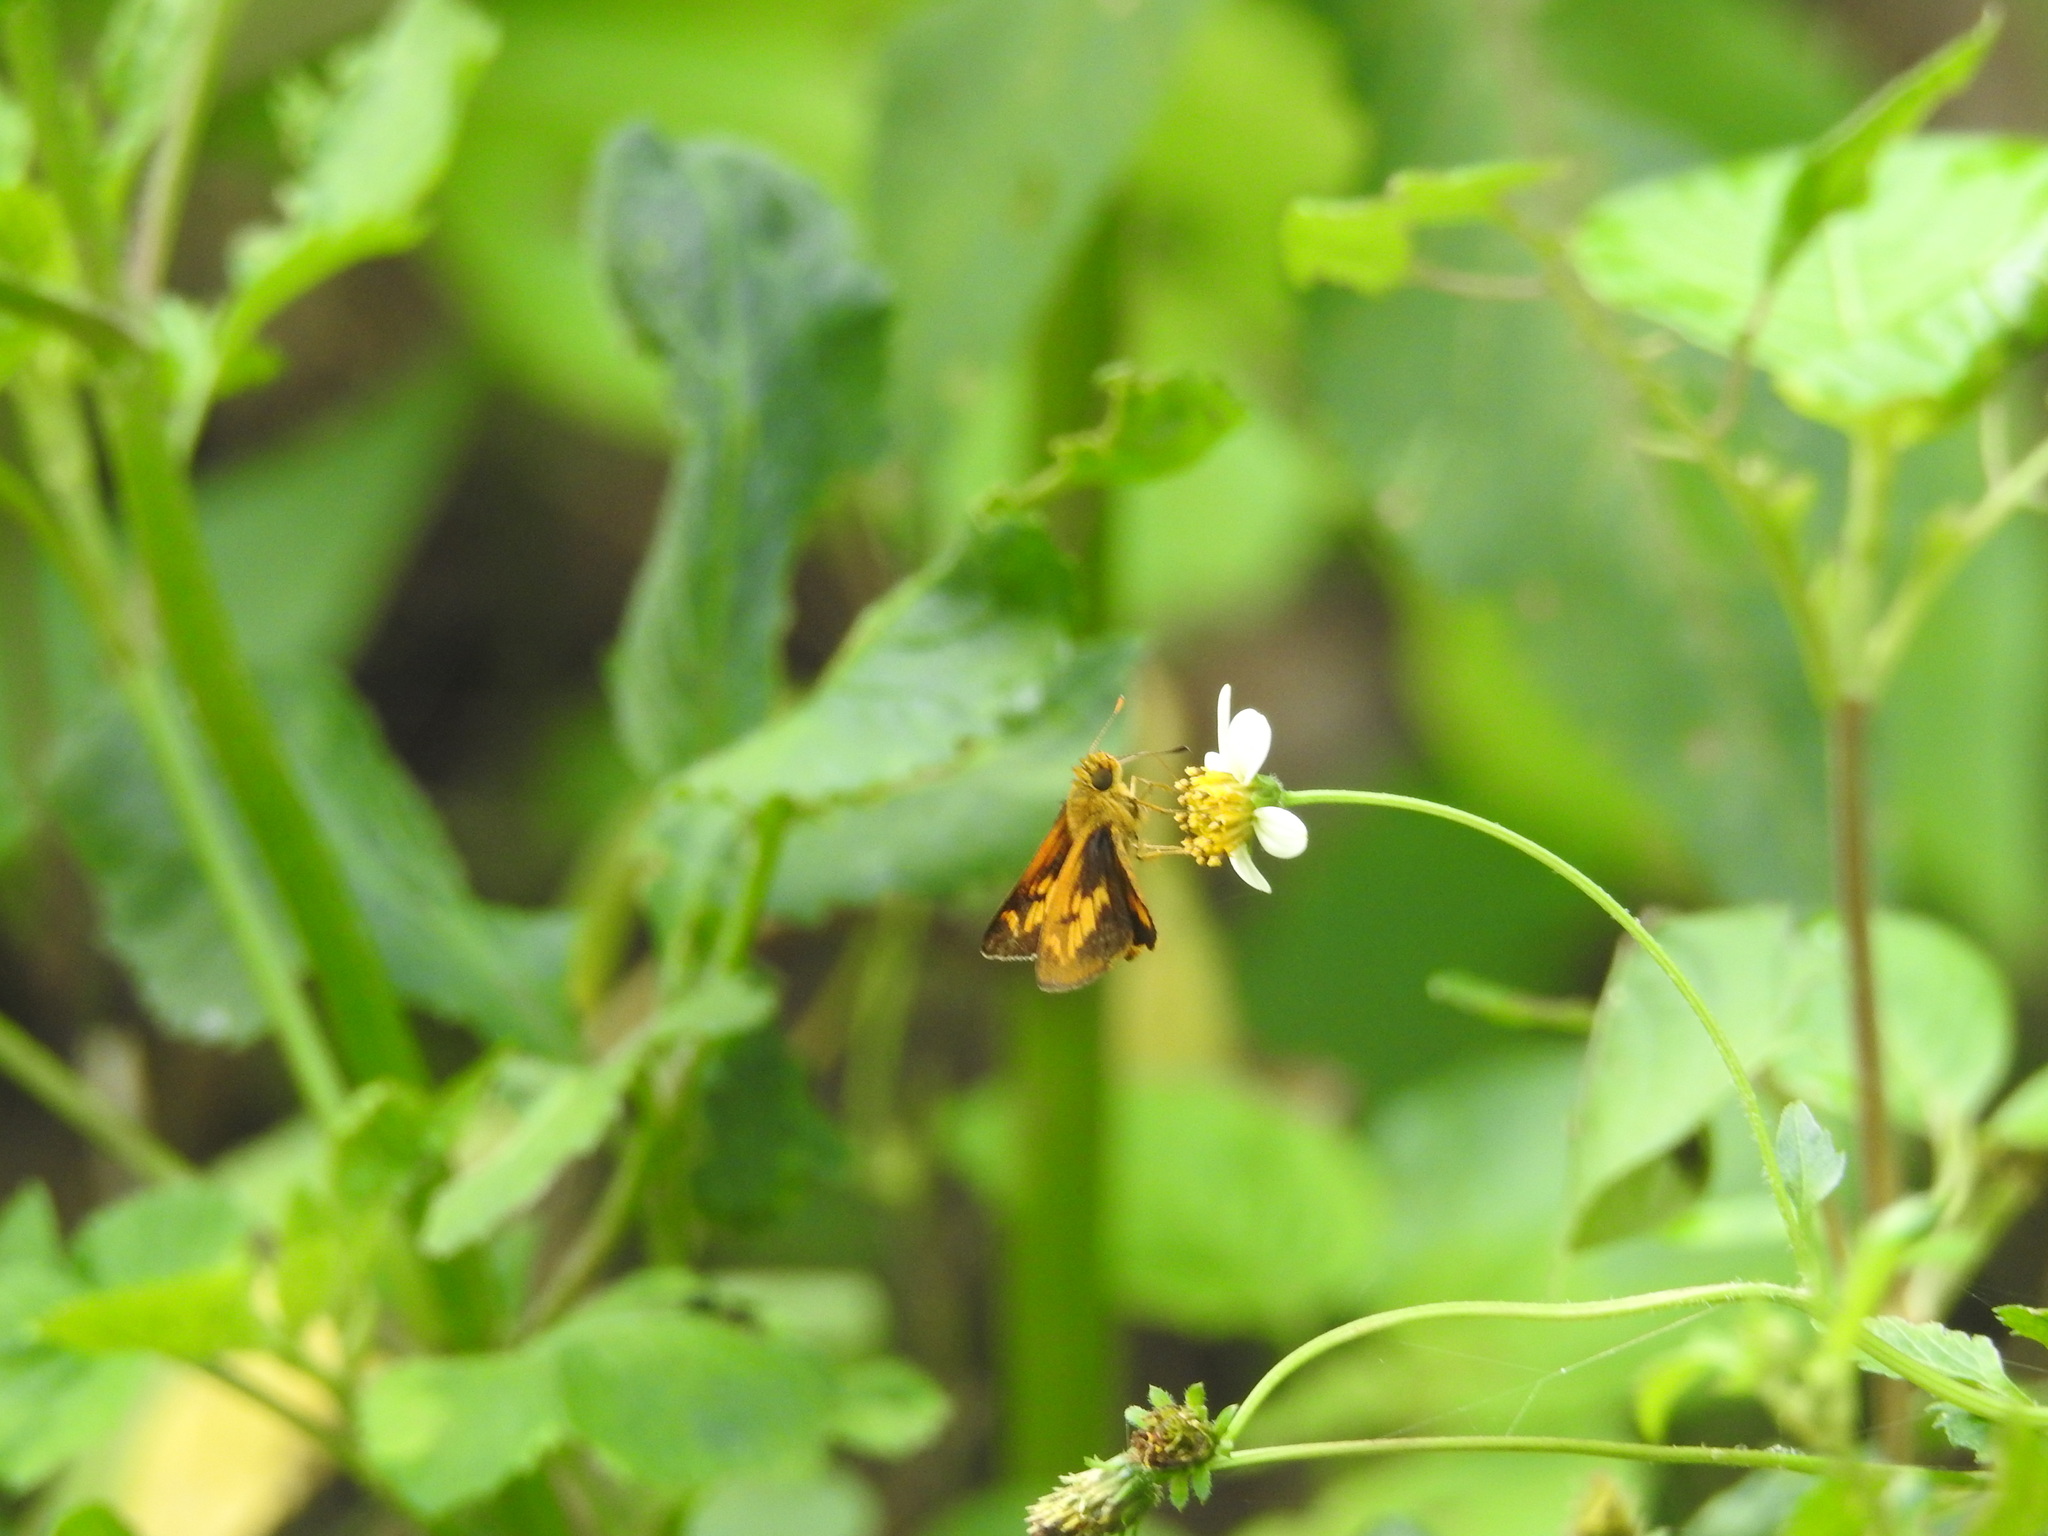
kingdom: Animalia
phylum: Arthropoda
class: Insecta
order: Lepidoptera
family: Hesperiidae
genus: Oriens
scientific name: Oriens goloides
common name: Smaller dartlet
